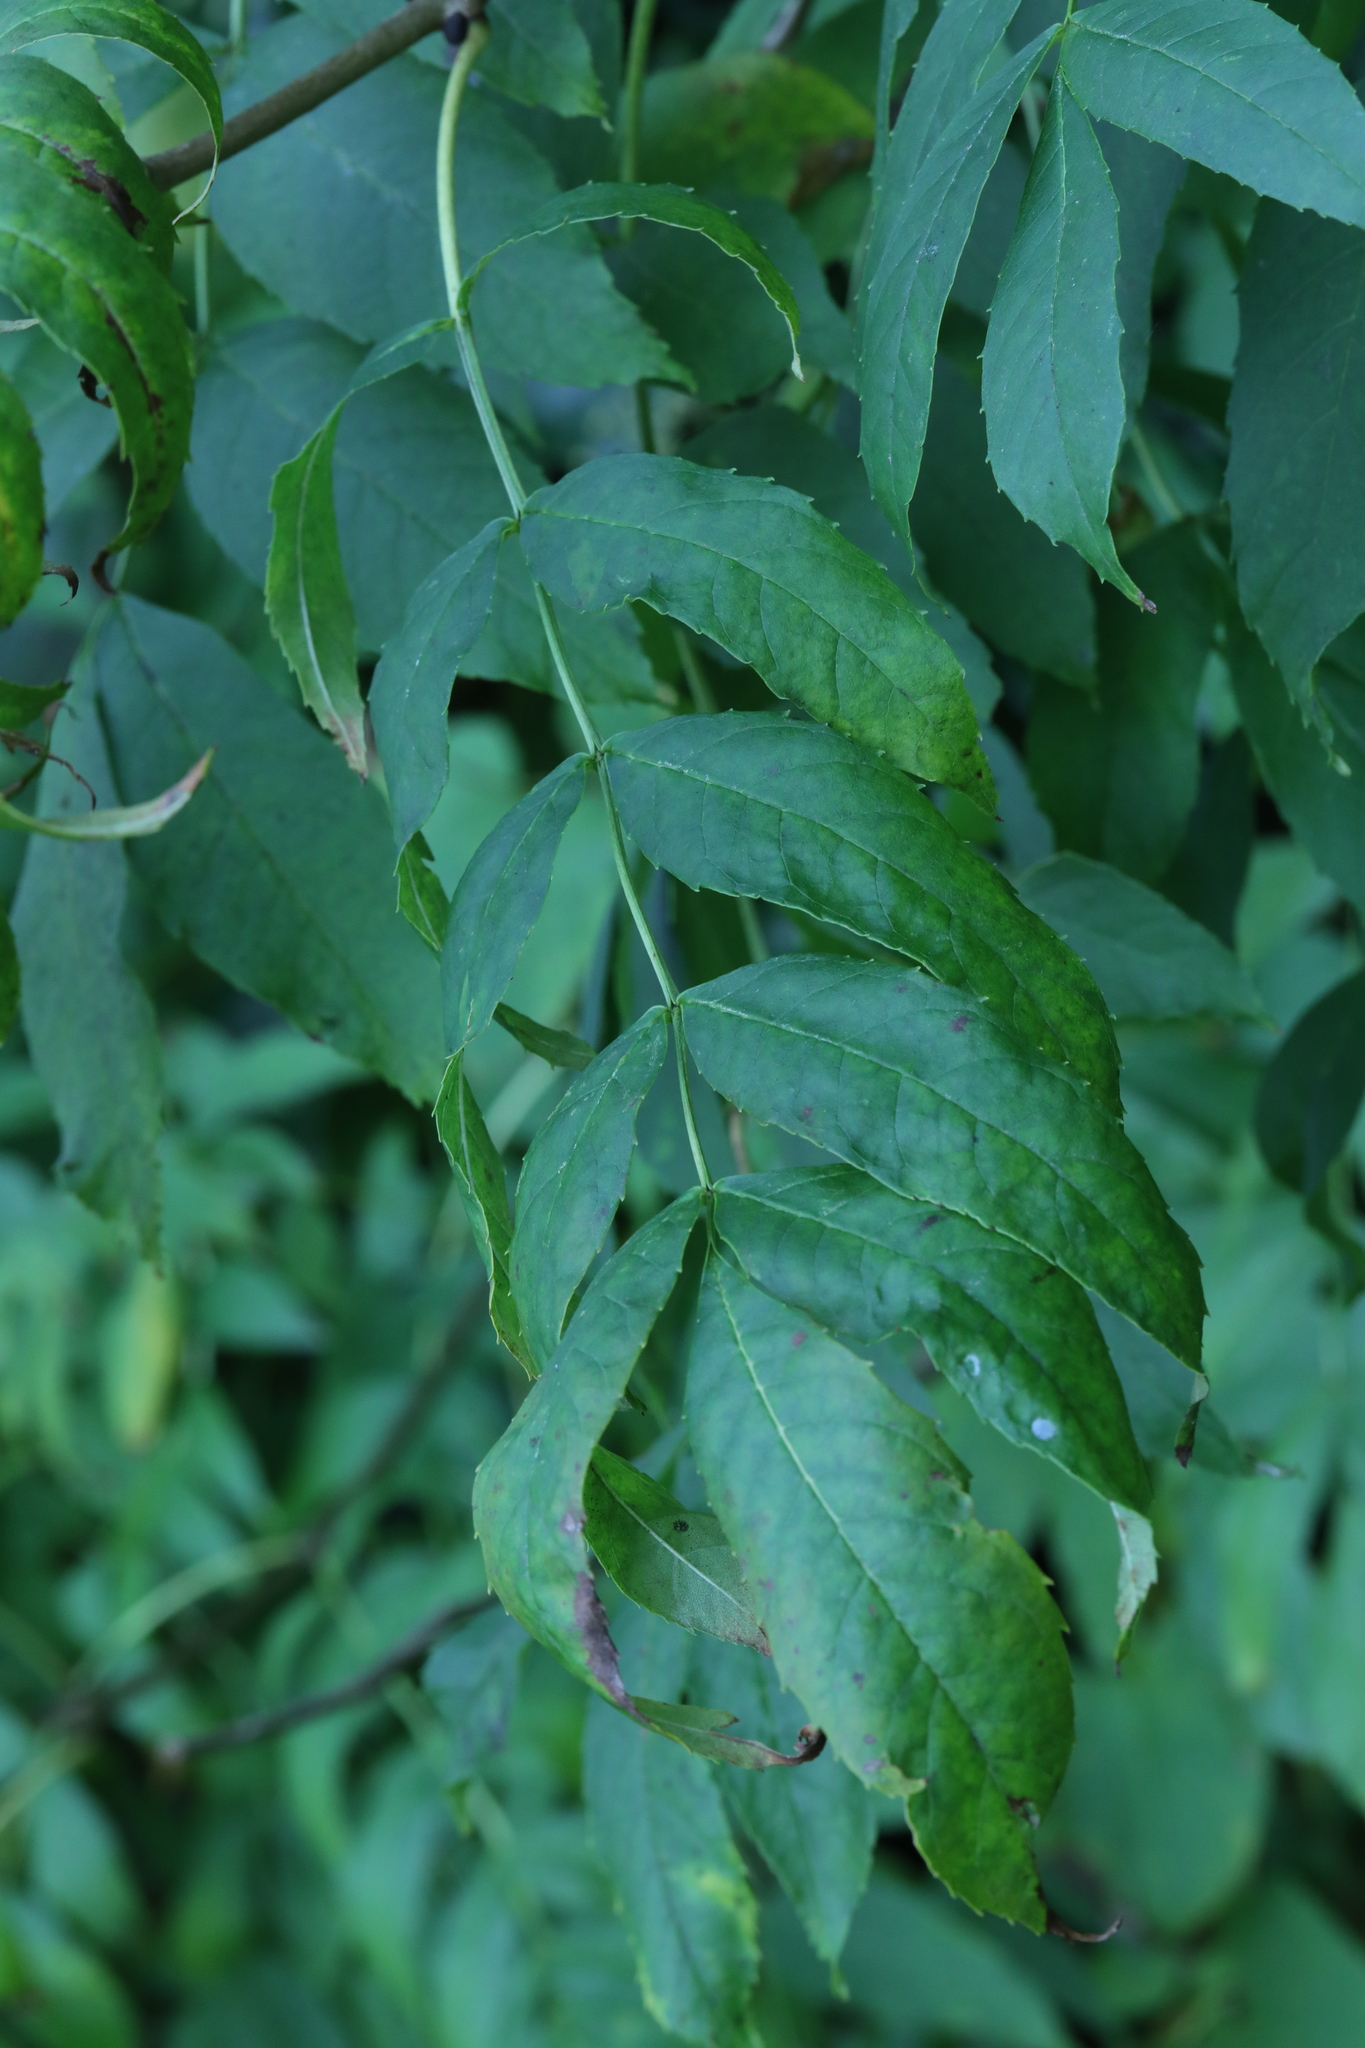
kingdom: Plantae
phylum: Tracheophyta
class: Magnoliopsida
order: Lamiales
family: Oleaceae
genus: Fraxinus
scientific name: Fraxinus excelsior
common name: European ash
